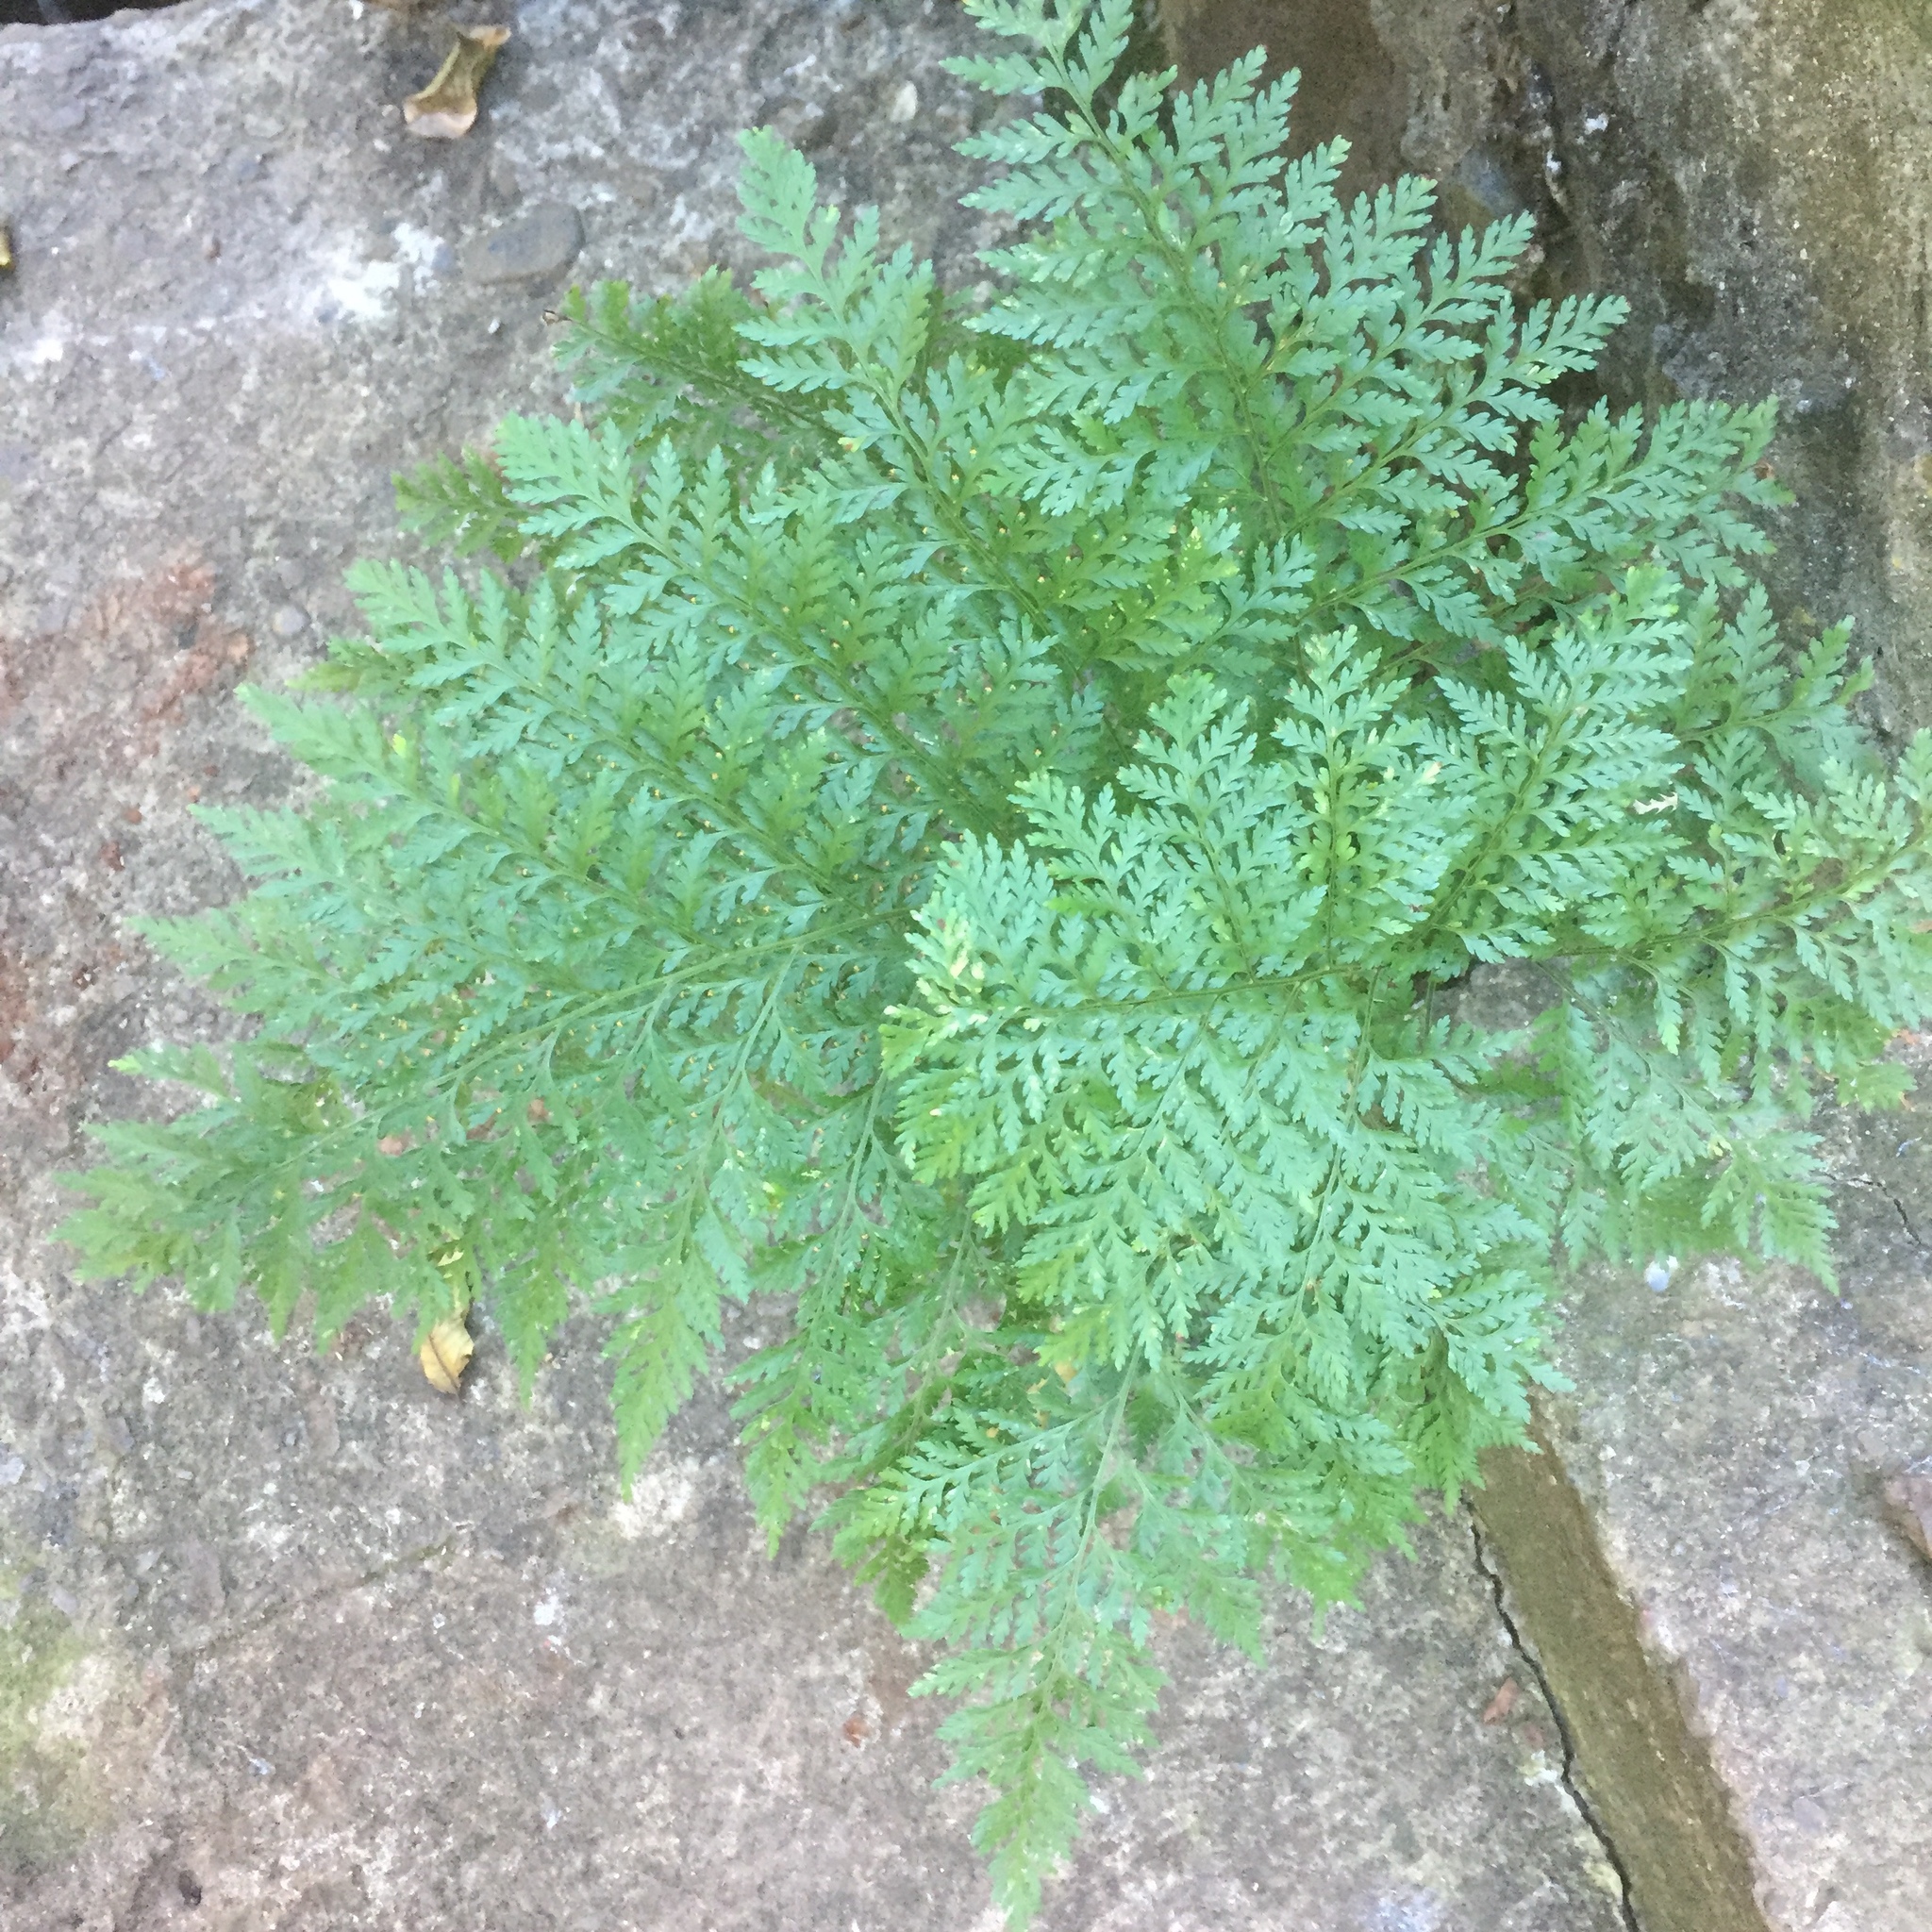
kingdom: Plantae
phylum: Tracheophyta
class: Polypodiopsida
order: Polypodiales
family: Davalliaceae
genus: Davallia
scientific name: Davallia canariensis
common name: Hare's-foot fern
